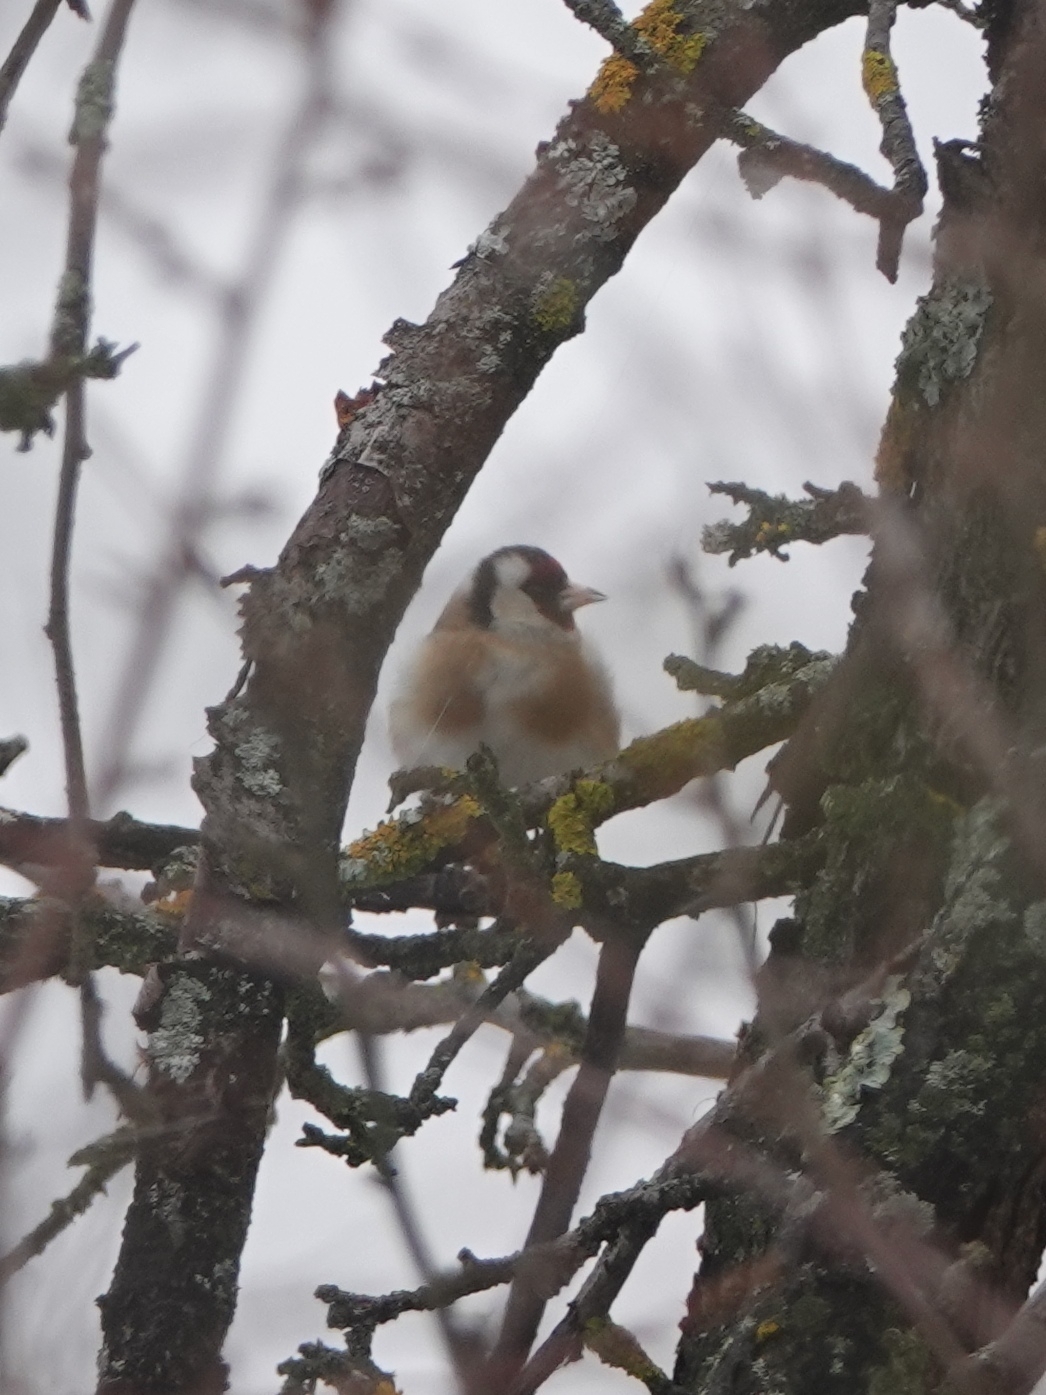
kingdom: Animalia
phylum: Chordata
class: Aves
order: Passeriformes
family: Fringillidae
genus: Carduelis
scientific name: Carduelis carduelis
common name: European goldfinch
